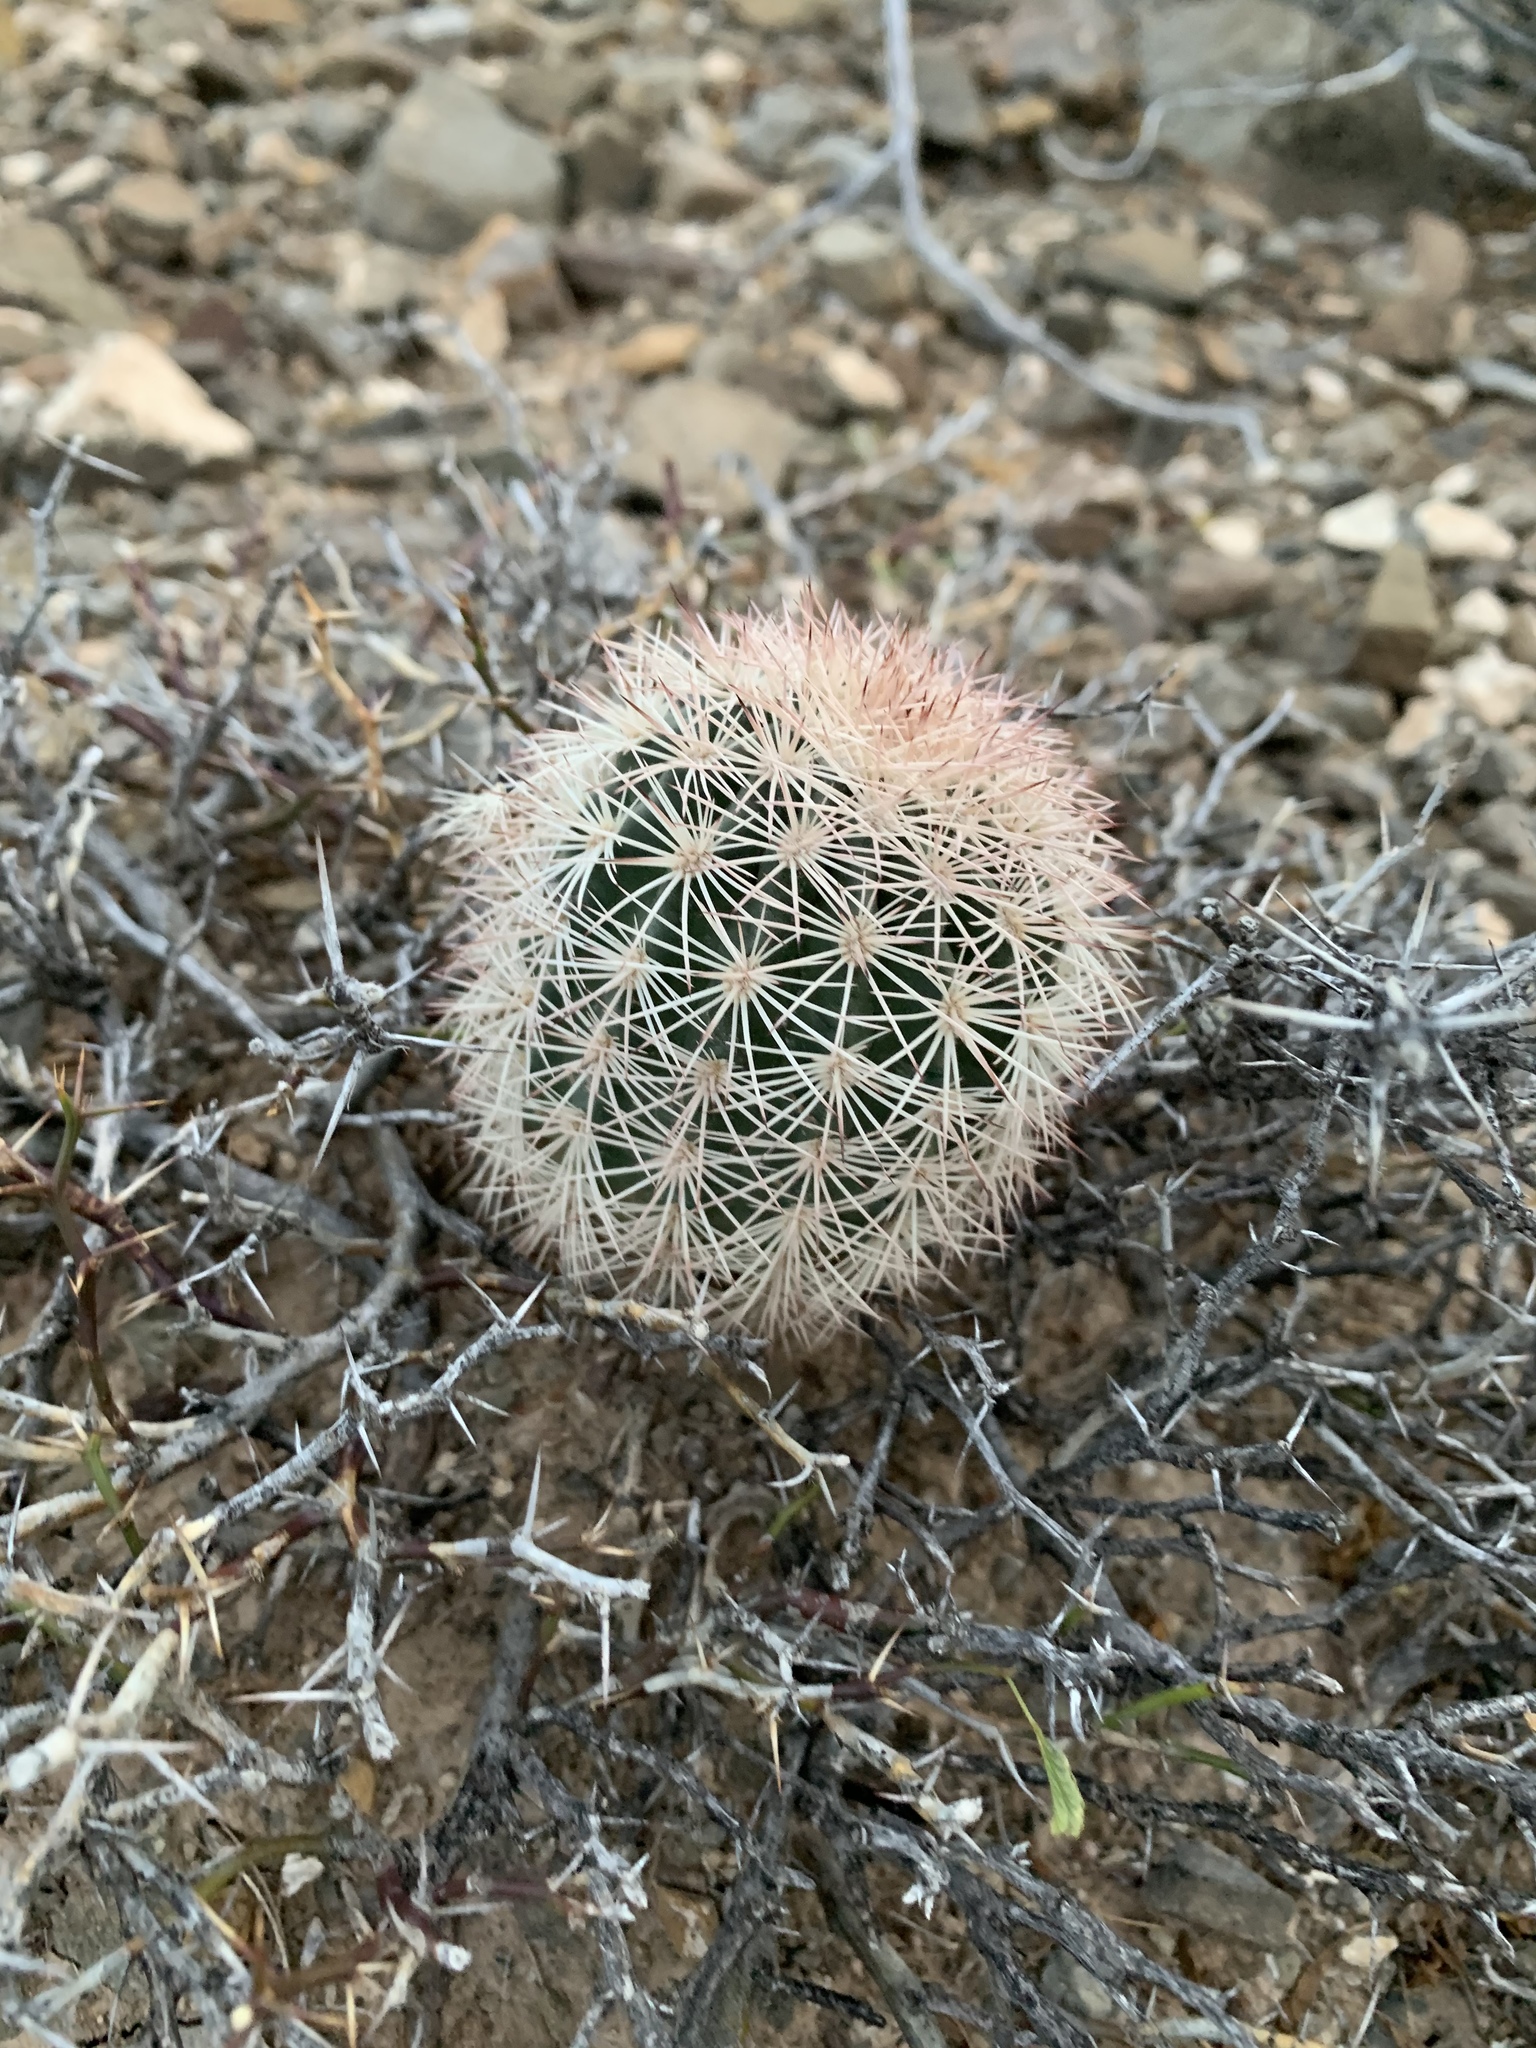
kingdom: Plantae
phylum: Tracheophyta
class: Magnoliopsida
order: Caryophyllales
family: Cactaceae
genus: Echinocereus
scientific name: Echinocereus dasyacanthus
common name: Spiny hedgehog cactus
